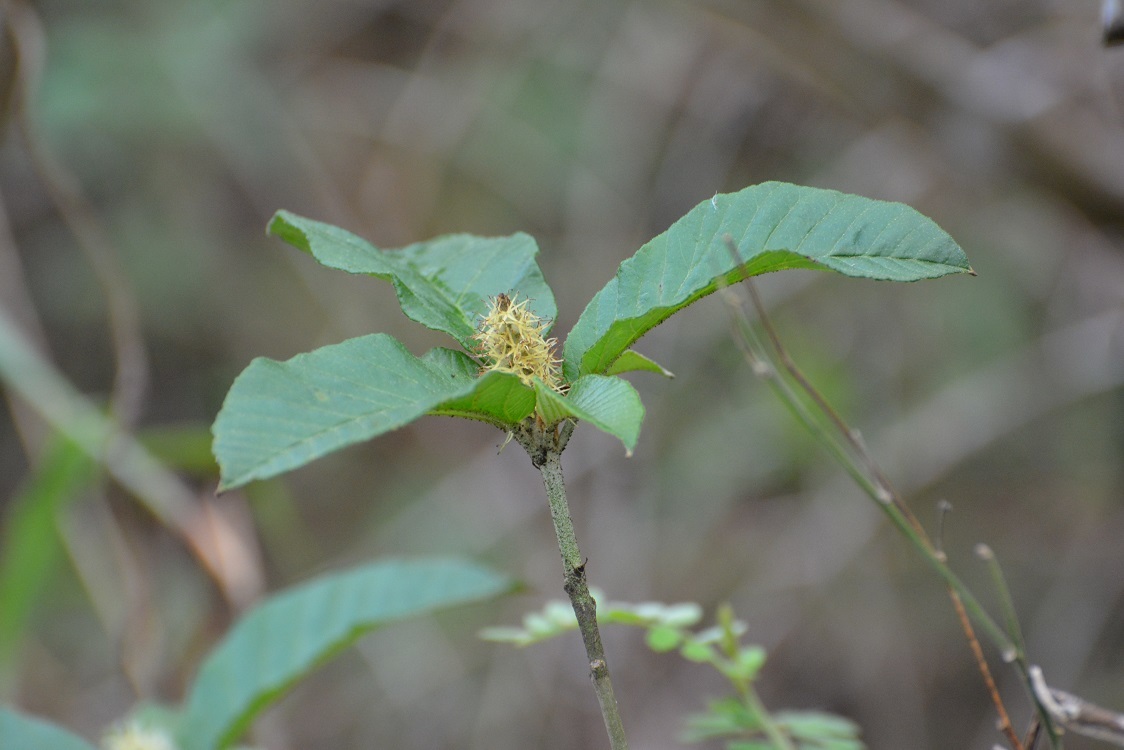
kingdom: Plantae
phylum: Tracheophyta
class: Magnoliopsida
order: Malpighiales
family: Euphorbiaceae
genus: Croton
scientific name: Croton cortesianus
